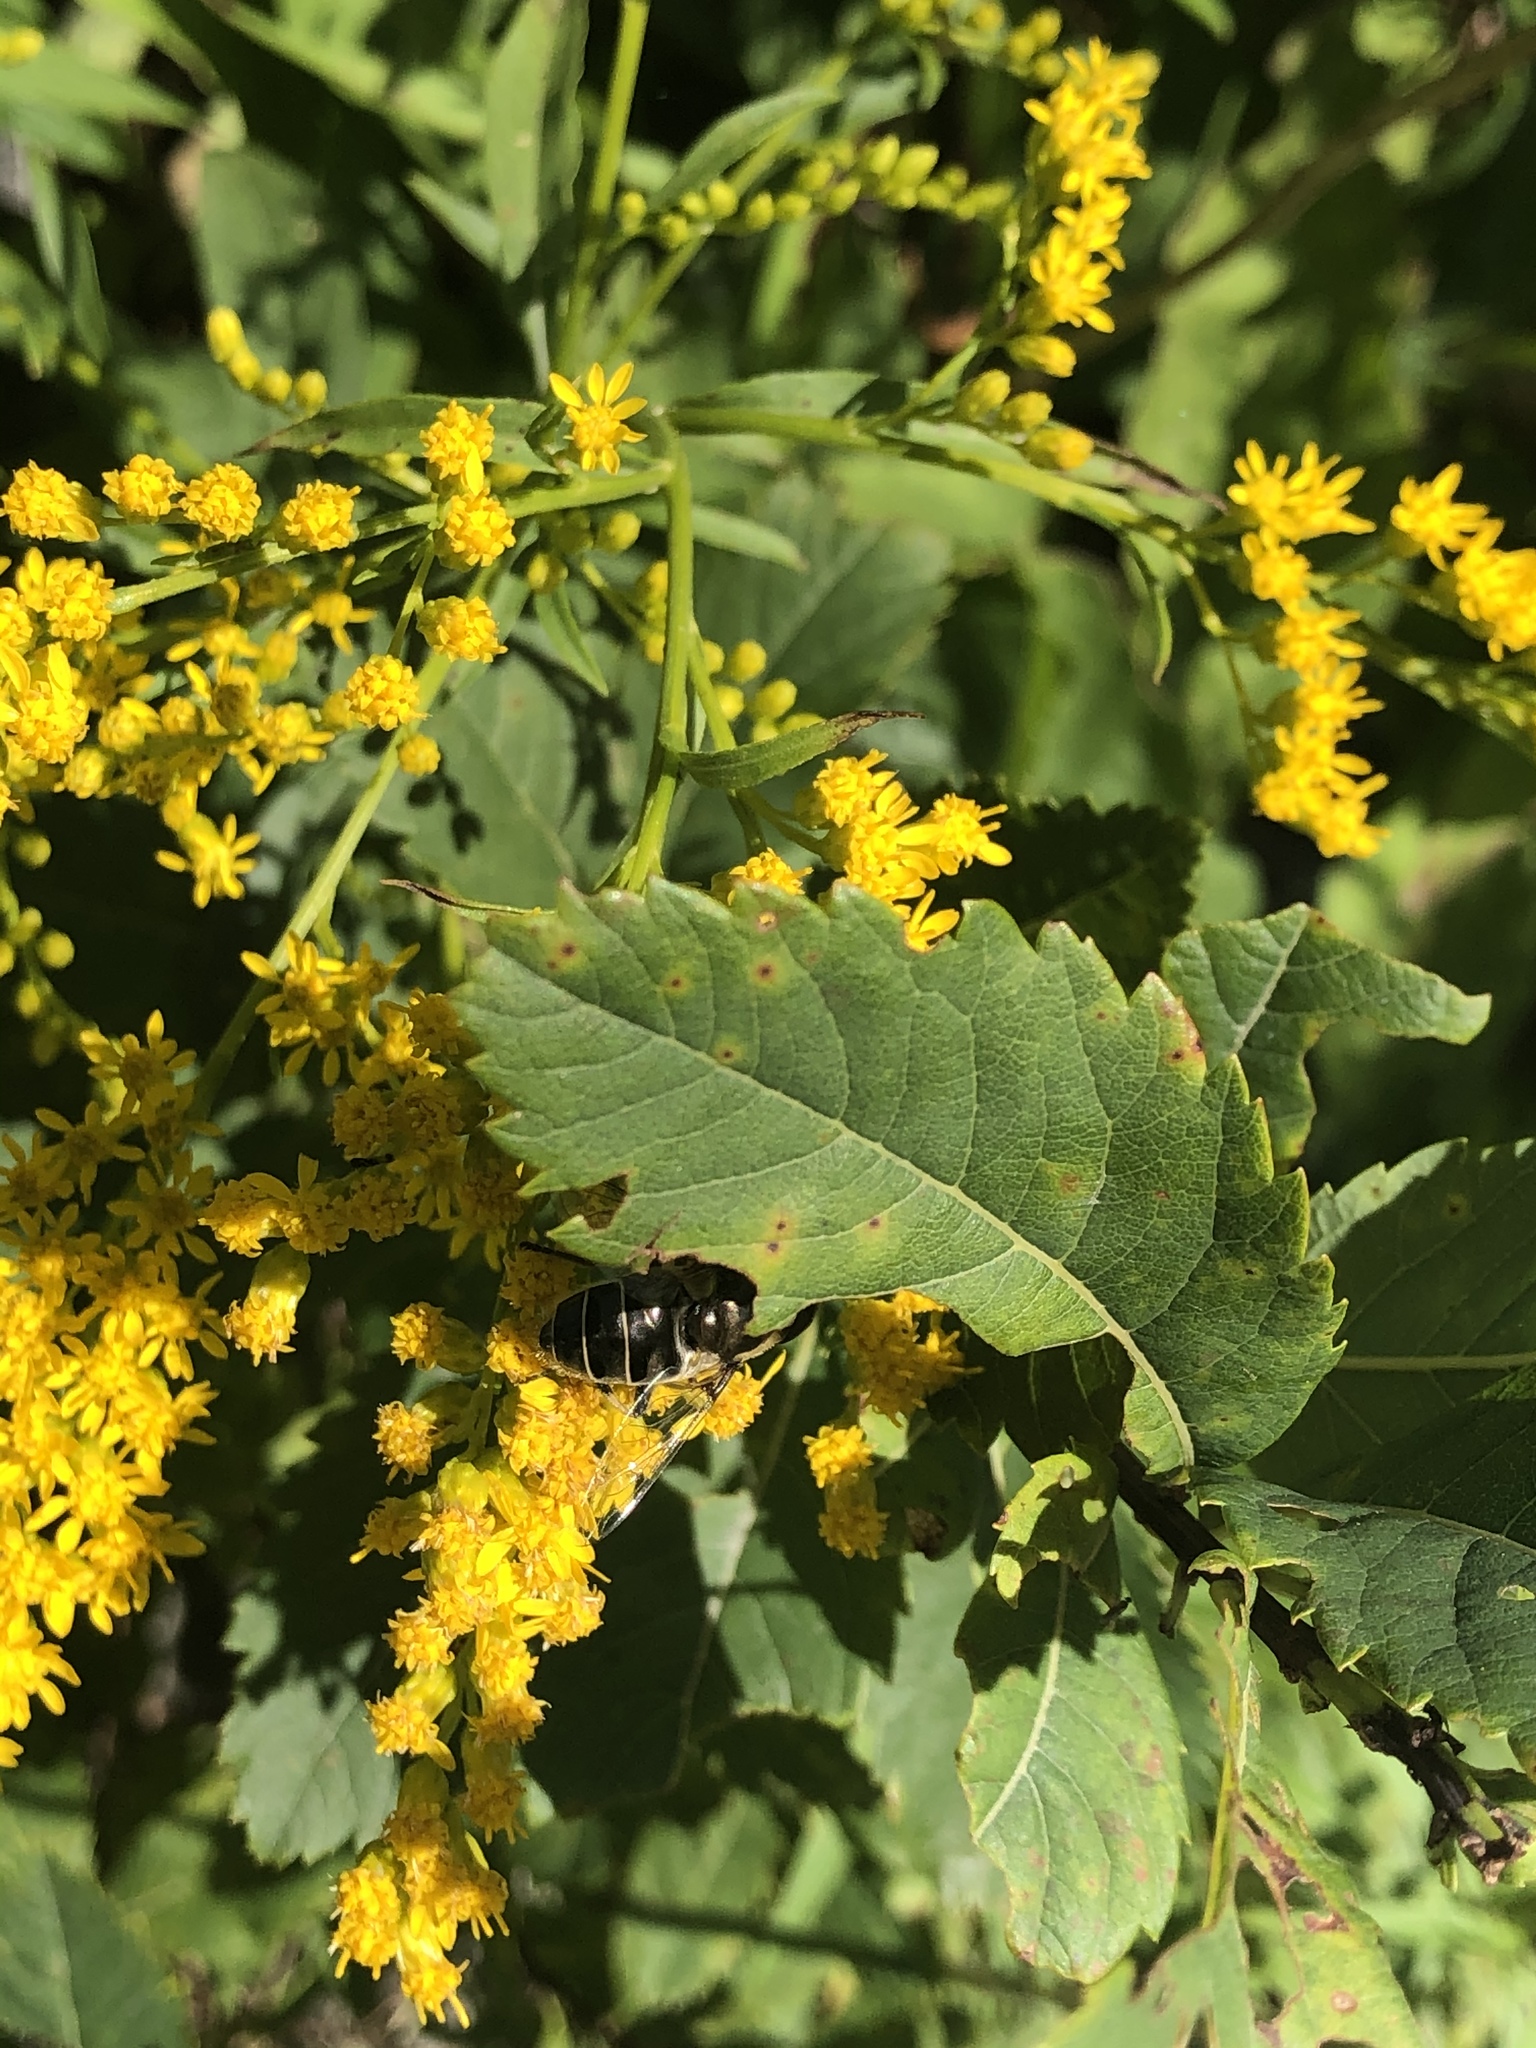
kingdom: Animalia
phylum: Arthropoda
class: Insecta
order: Diptera
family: Syrphidae
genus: Eristalis
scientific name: Eristalis dimidiata
